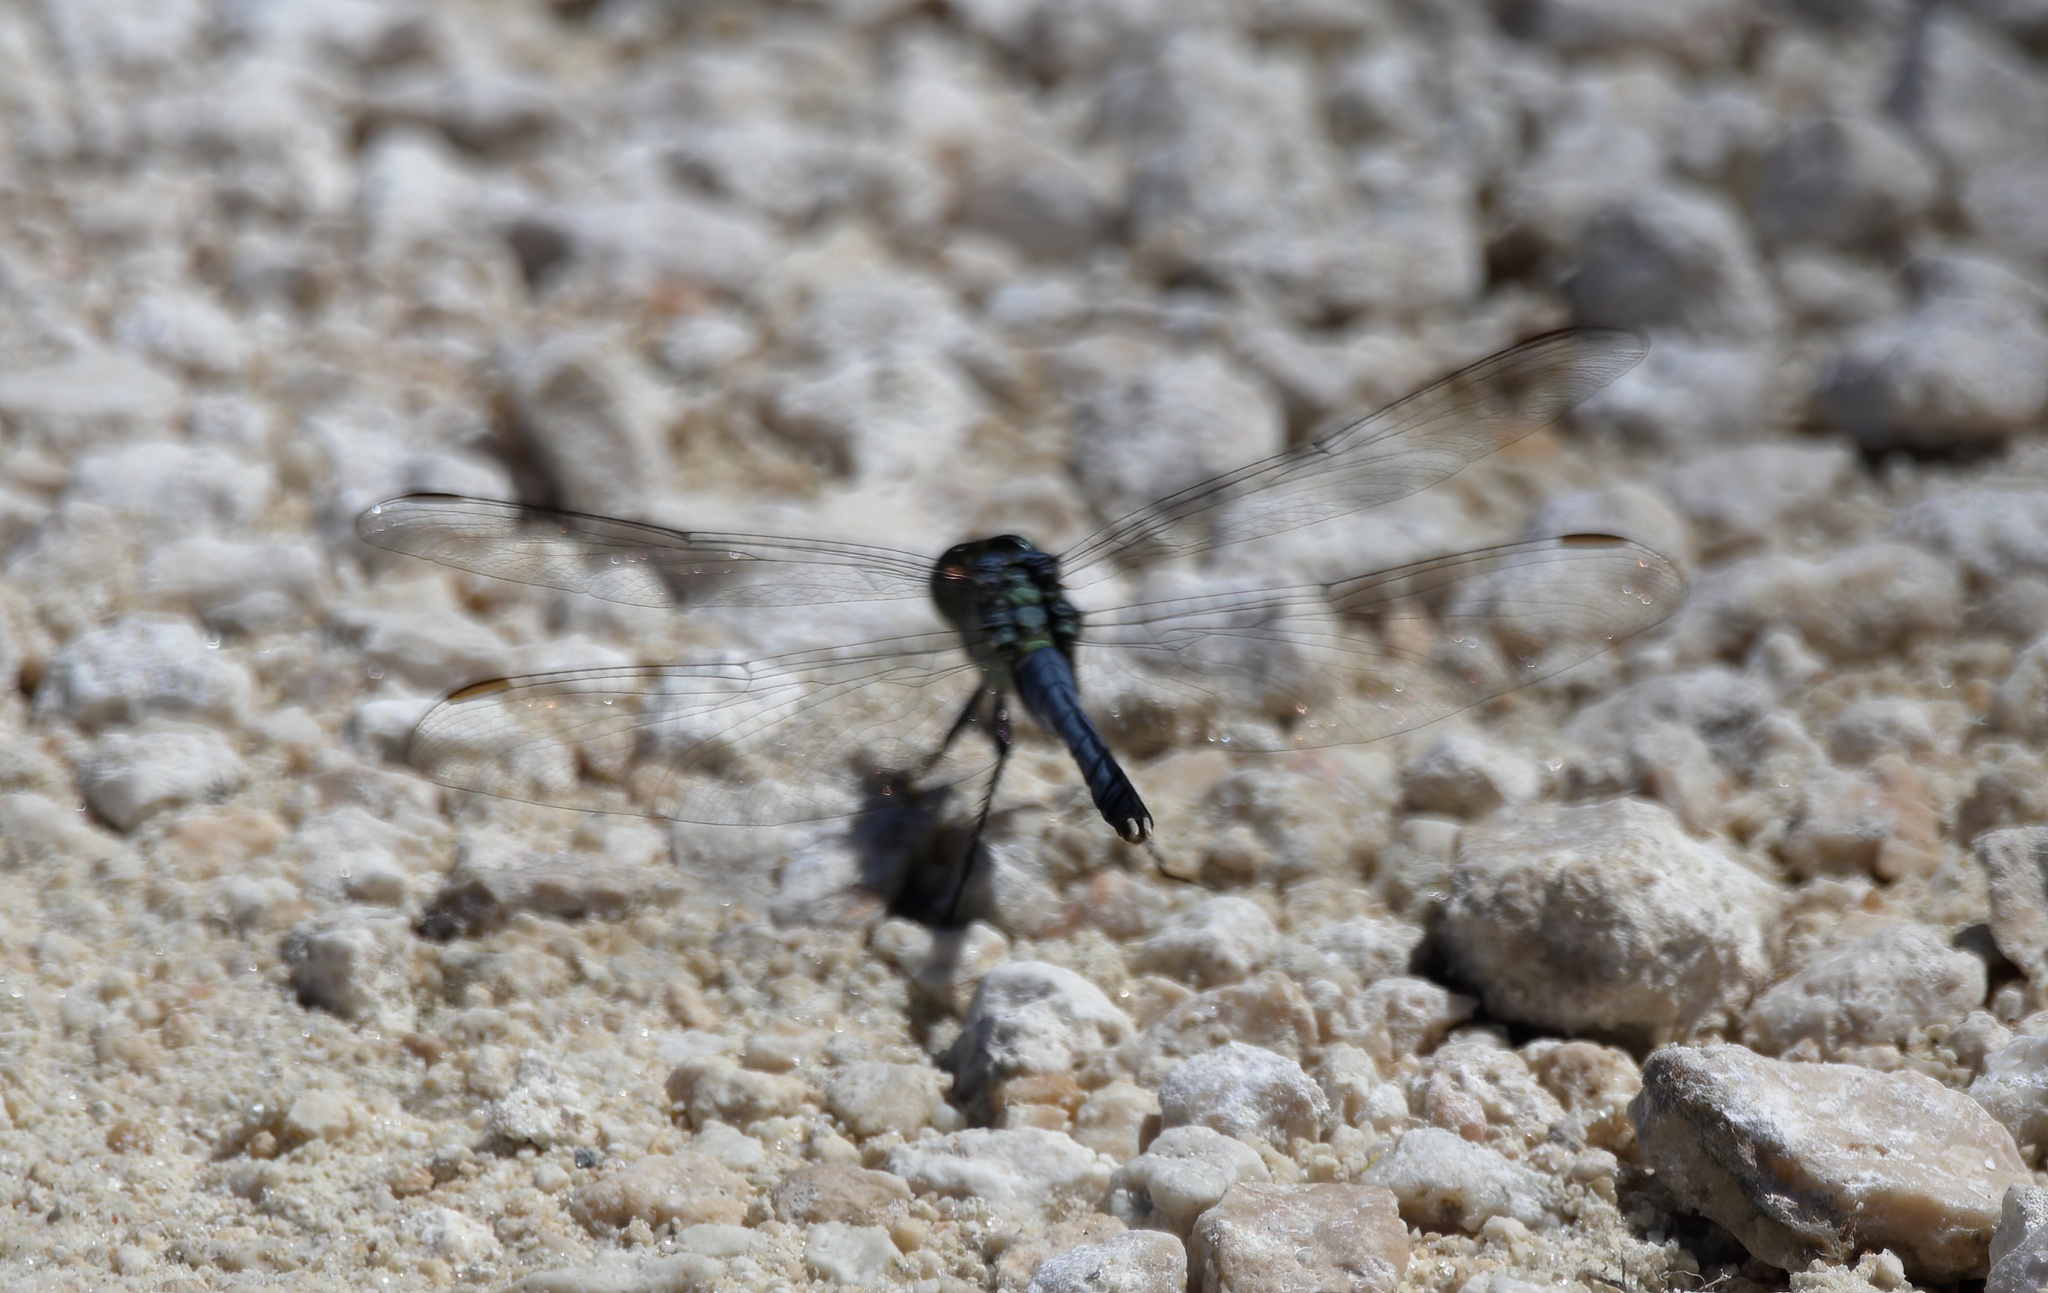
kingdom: Animalia
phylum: Arthropoda
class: Insecta
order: Odonata
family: Libellulidae
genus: Erythemis
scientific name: Erythemis simplicicollis
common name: Eastern pondhawk
